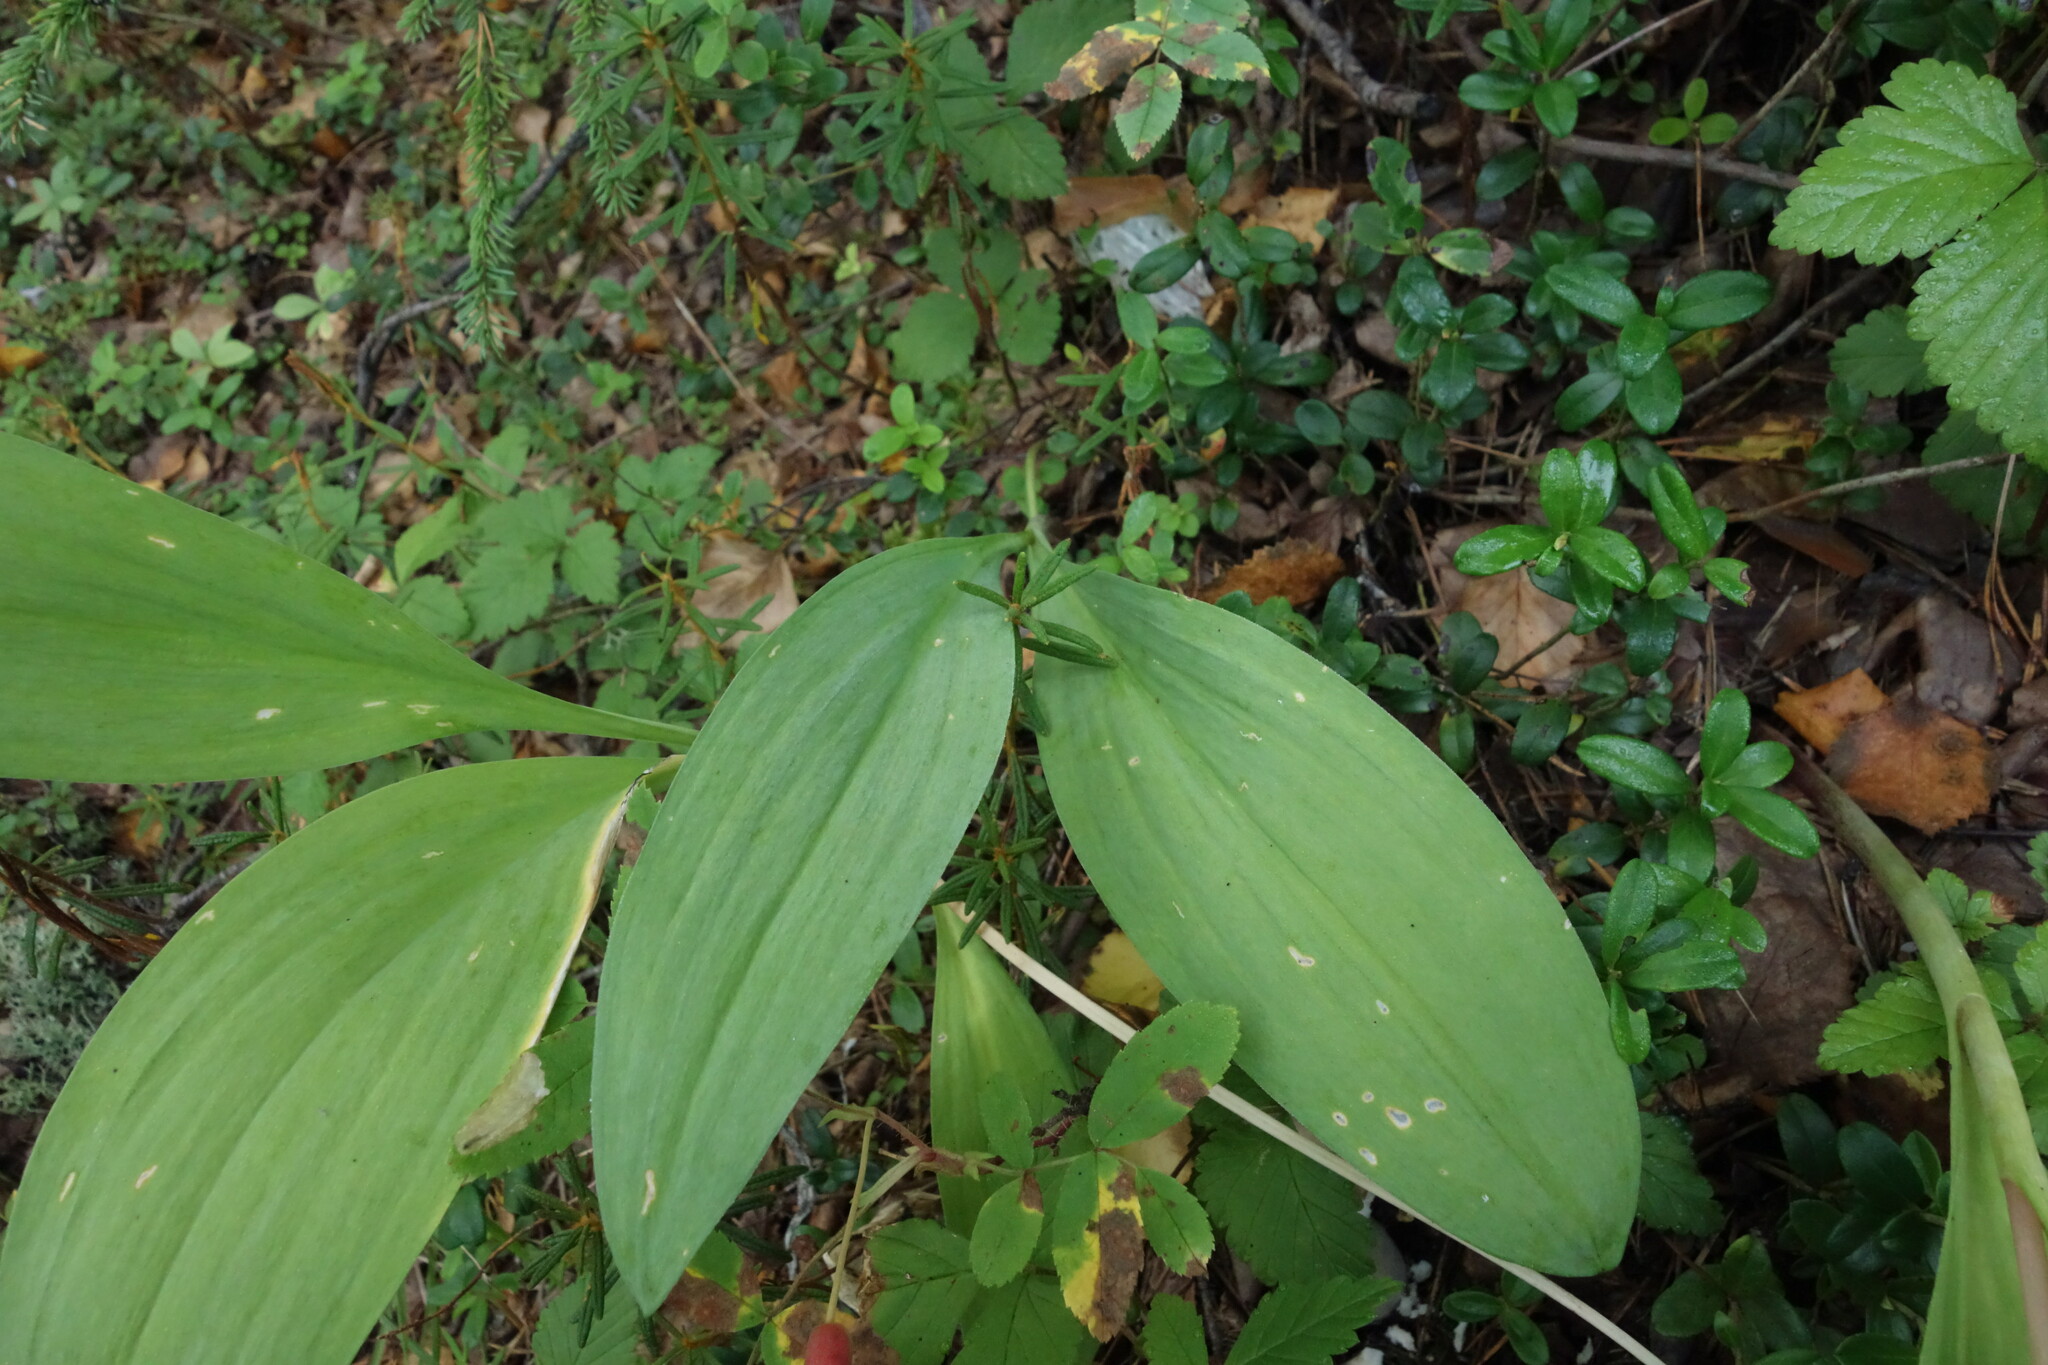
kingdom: Plantae
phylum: Tracheophyta
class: Liliopsida
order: Asparagales
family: Amaryllidaceae
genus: Allium
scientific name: Allium microdictyon
